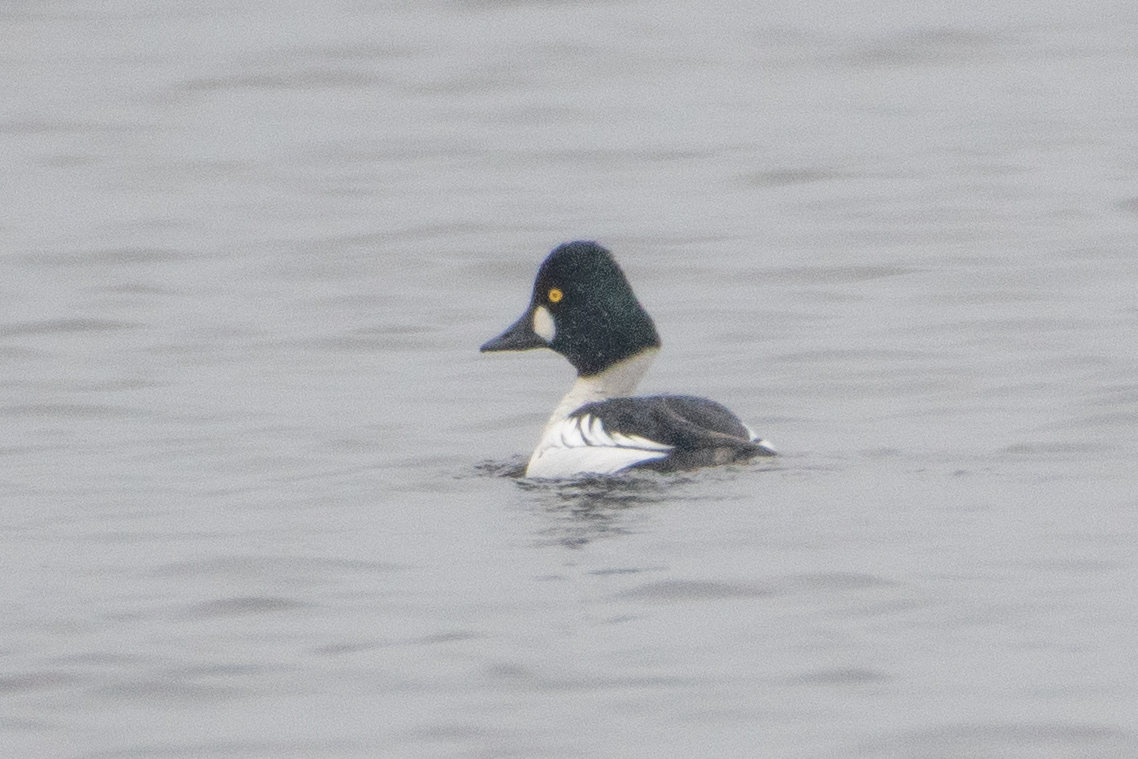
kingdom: Animalia
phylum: Chordata
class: Aves
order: Anseriformes
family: Anatidae
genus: Bucephala
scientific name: Bucephala clangula
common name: Common goldeneye
